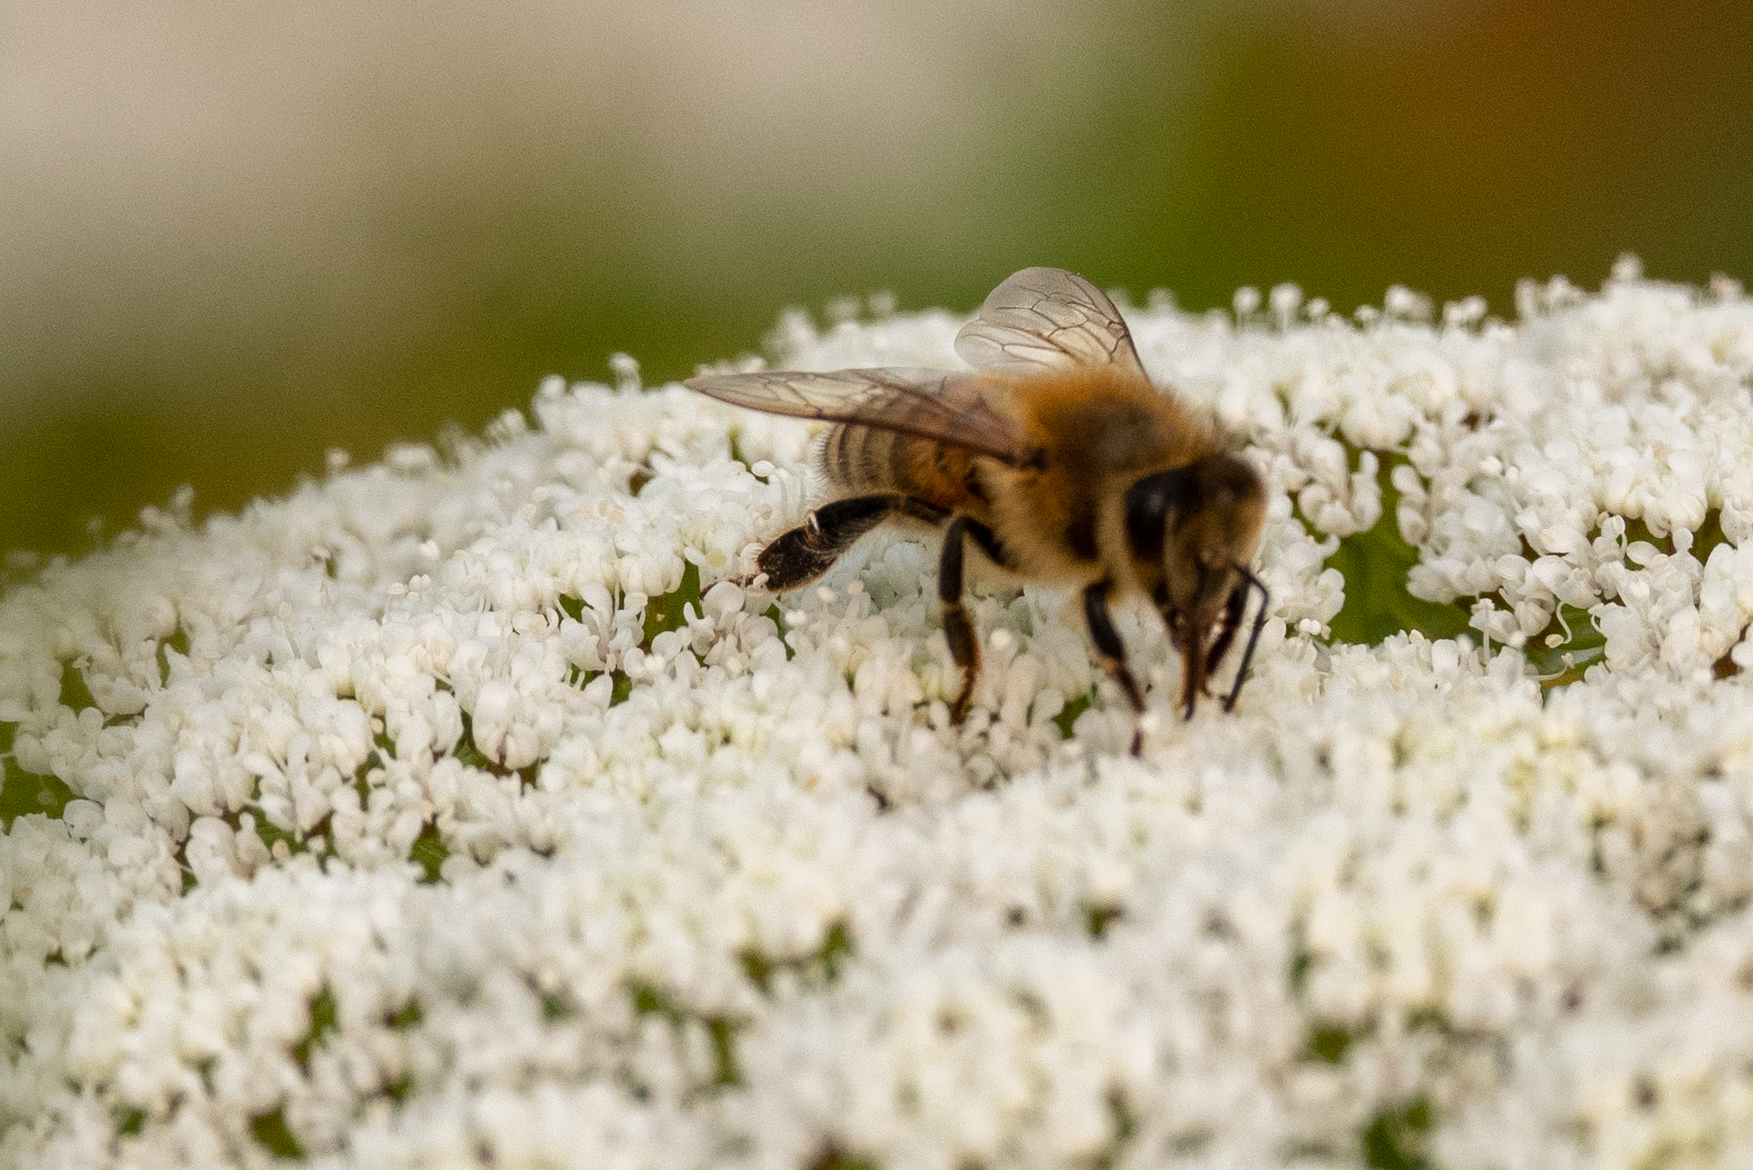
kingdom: Animalia
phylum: Arthropoda
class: Insecta
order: Hymenoptera
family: Apidae
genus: Apis
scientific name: Apis mellifera
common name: Honey bee
